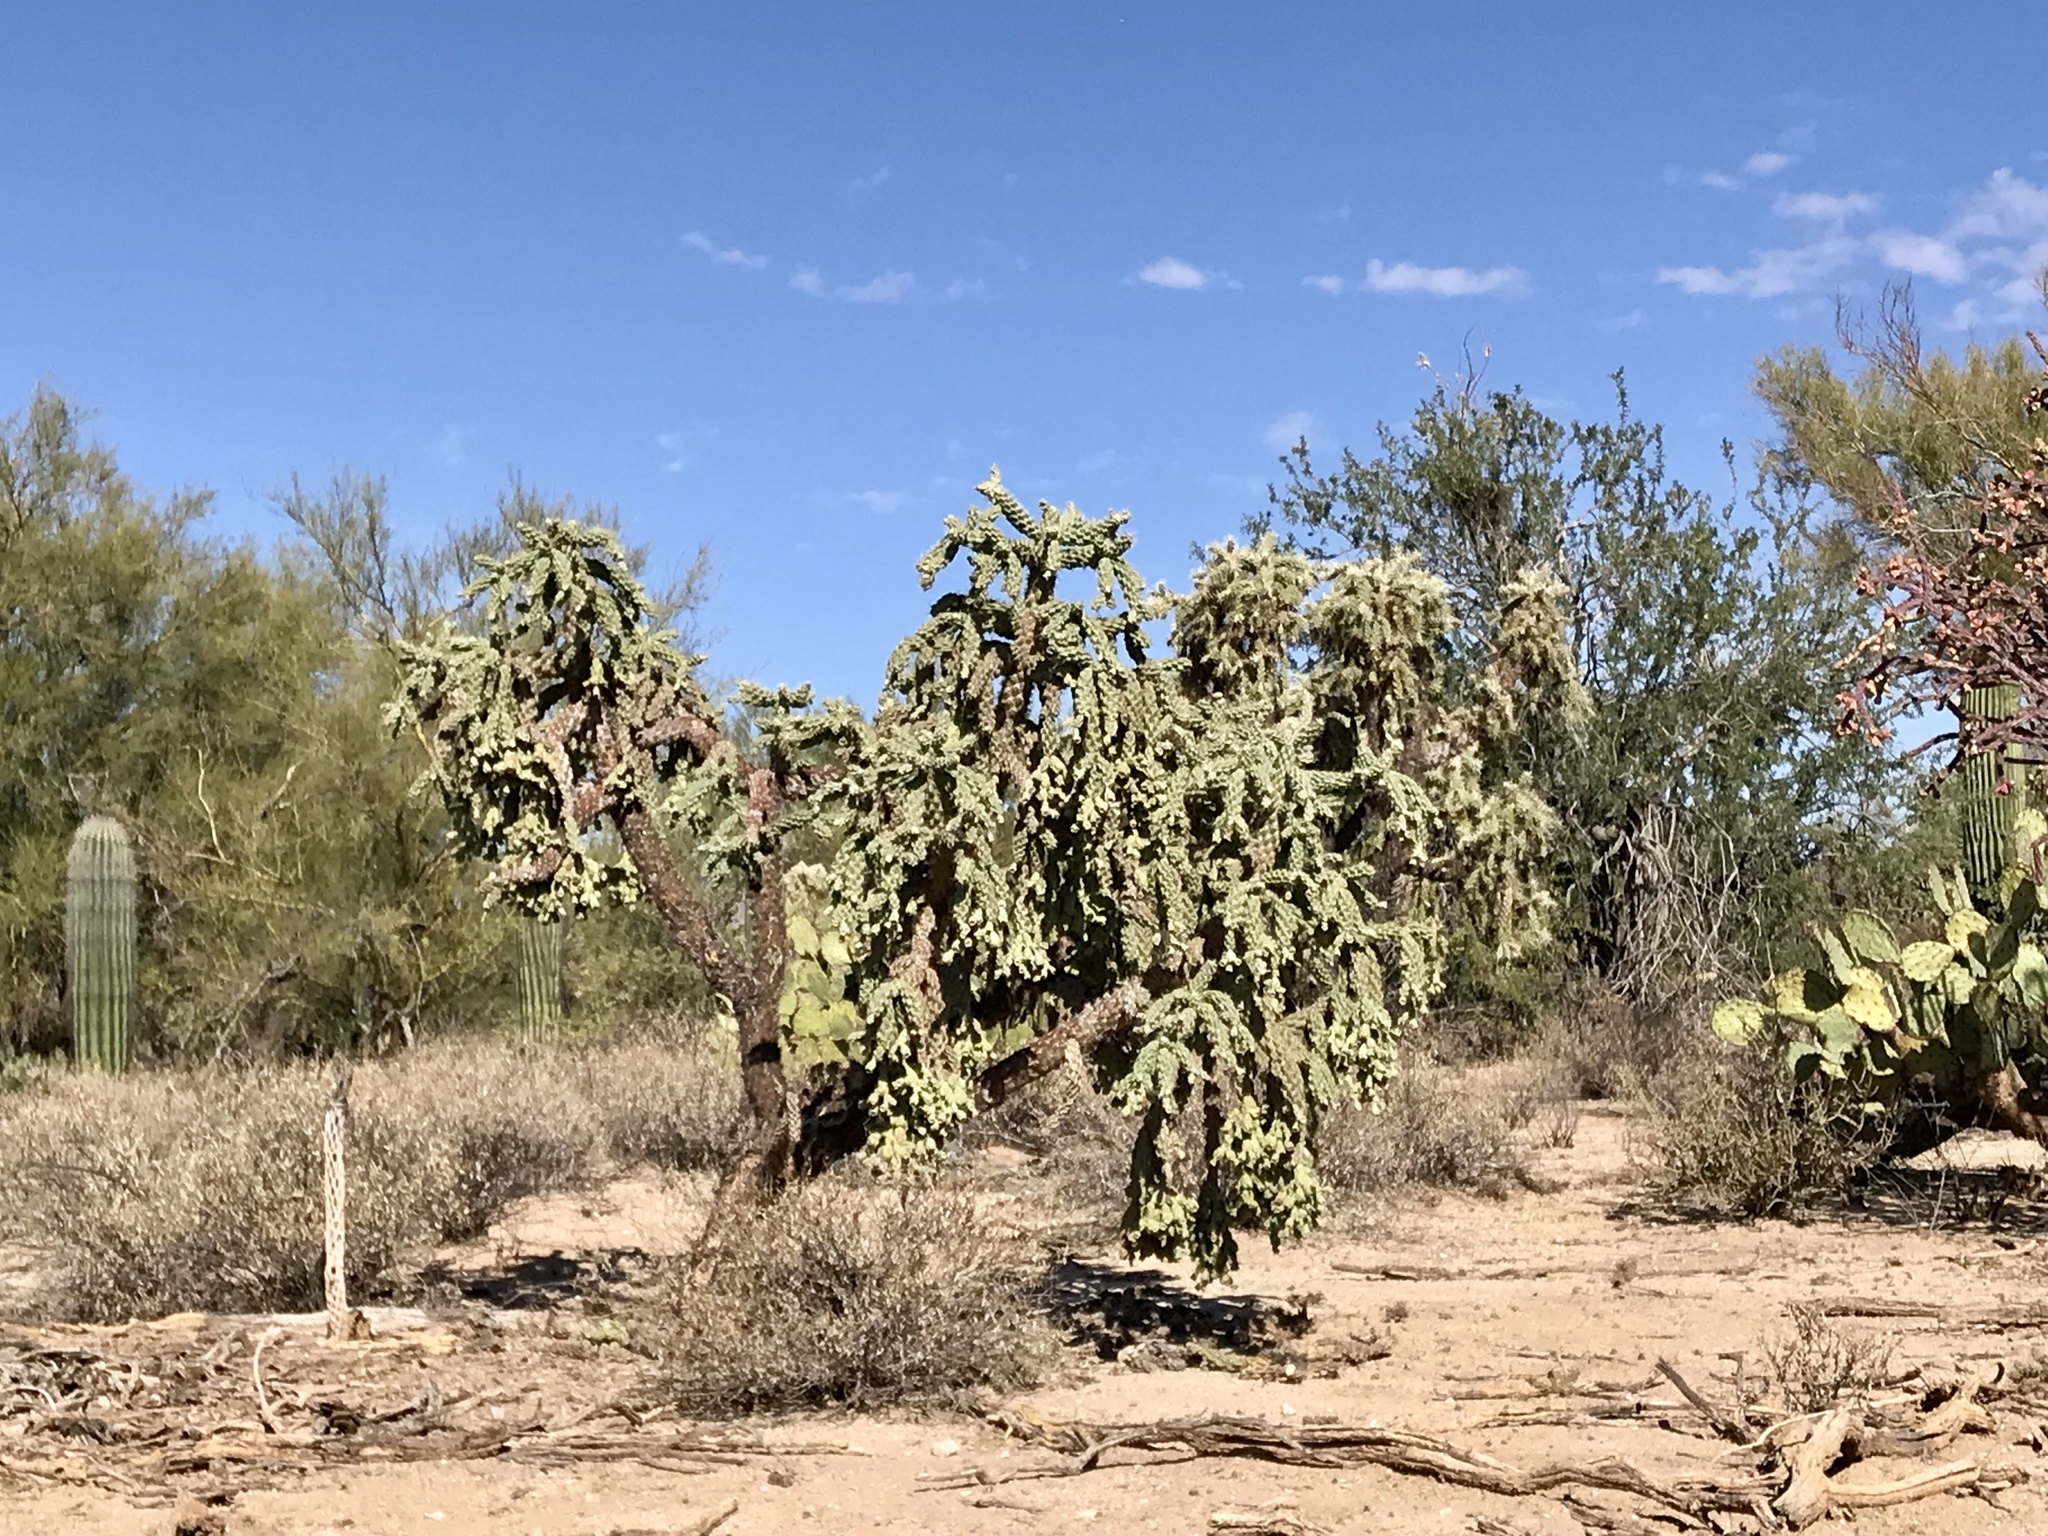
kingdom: Plantae
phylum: Tracheophyta
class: Magnoliopsida
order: Caryophyllales
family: Cactaceae
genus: Cylindropuntia
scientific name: Cylindropuntia fulgida
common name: Jumping cholla
